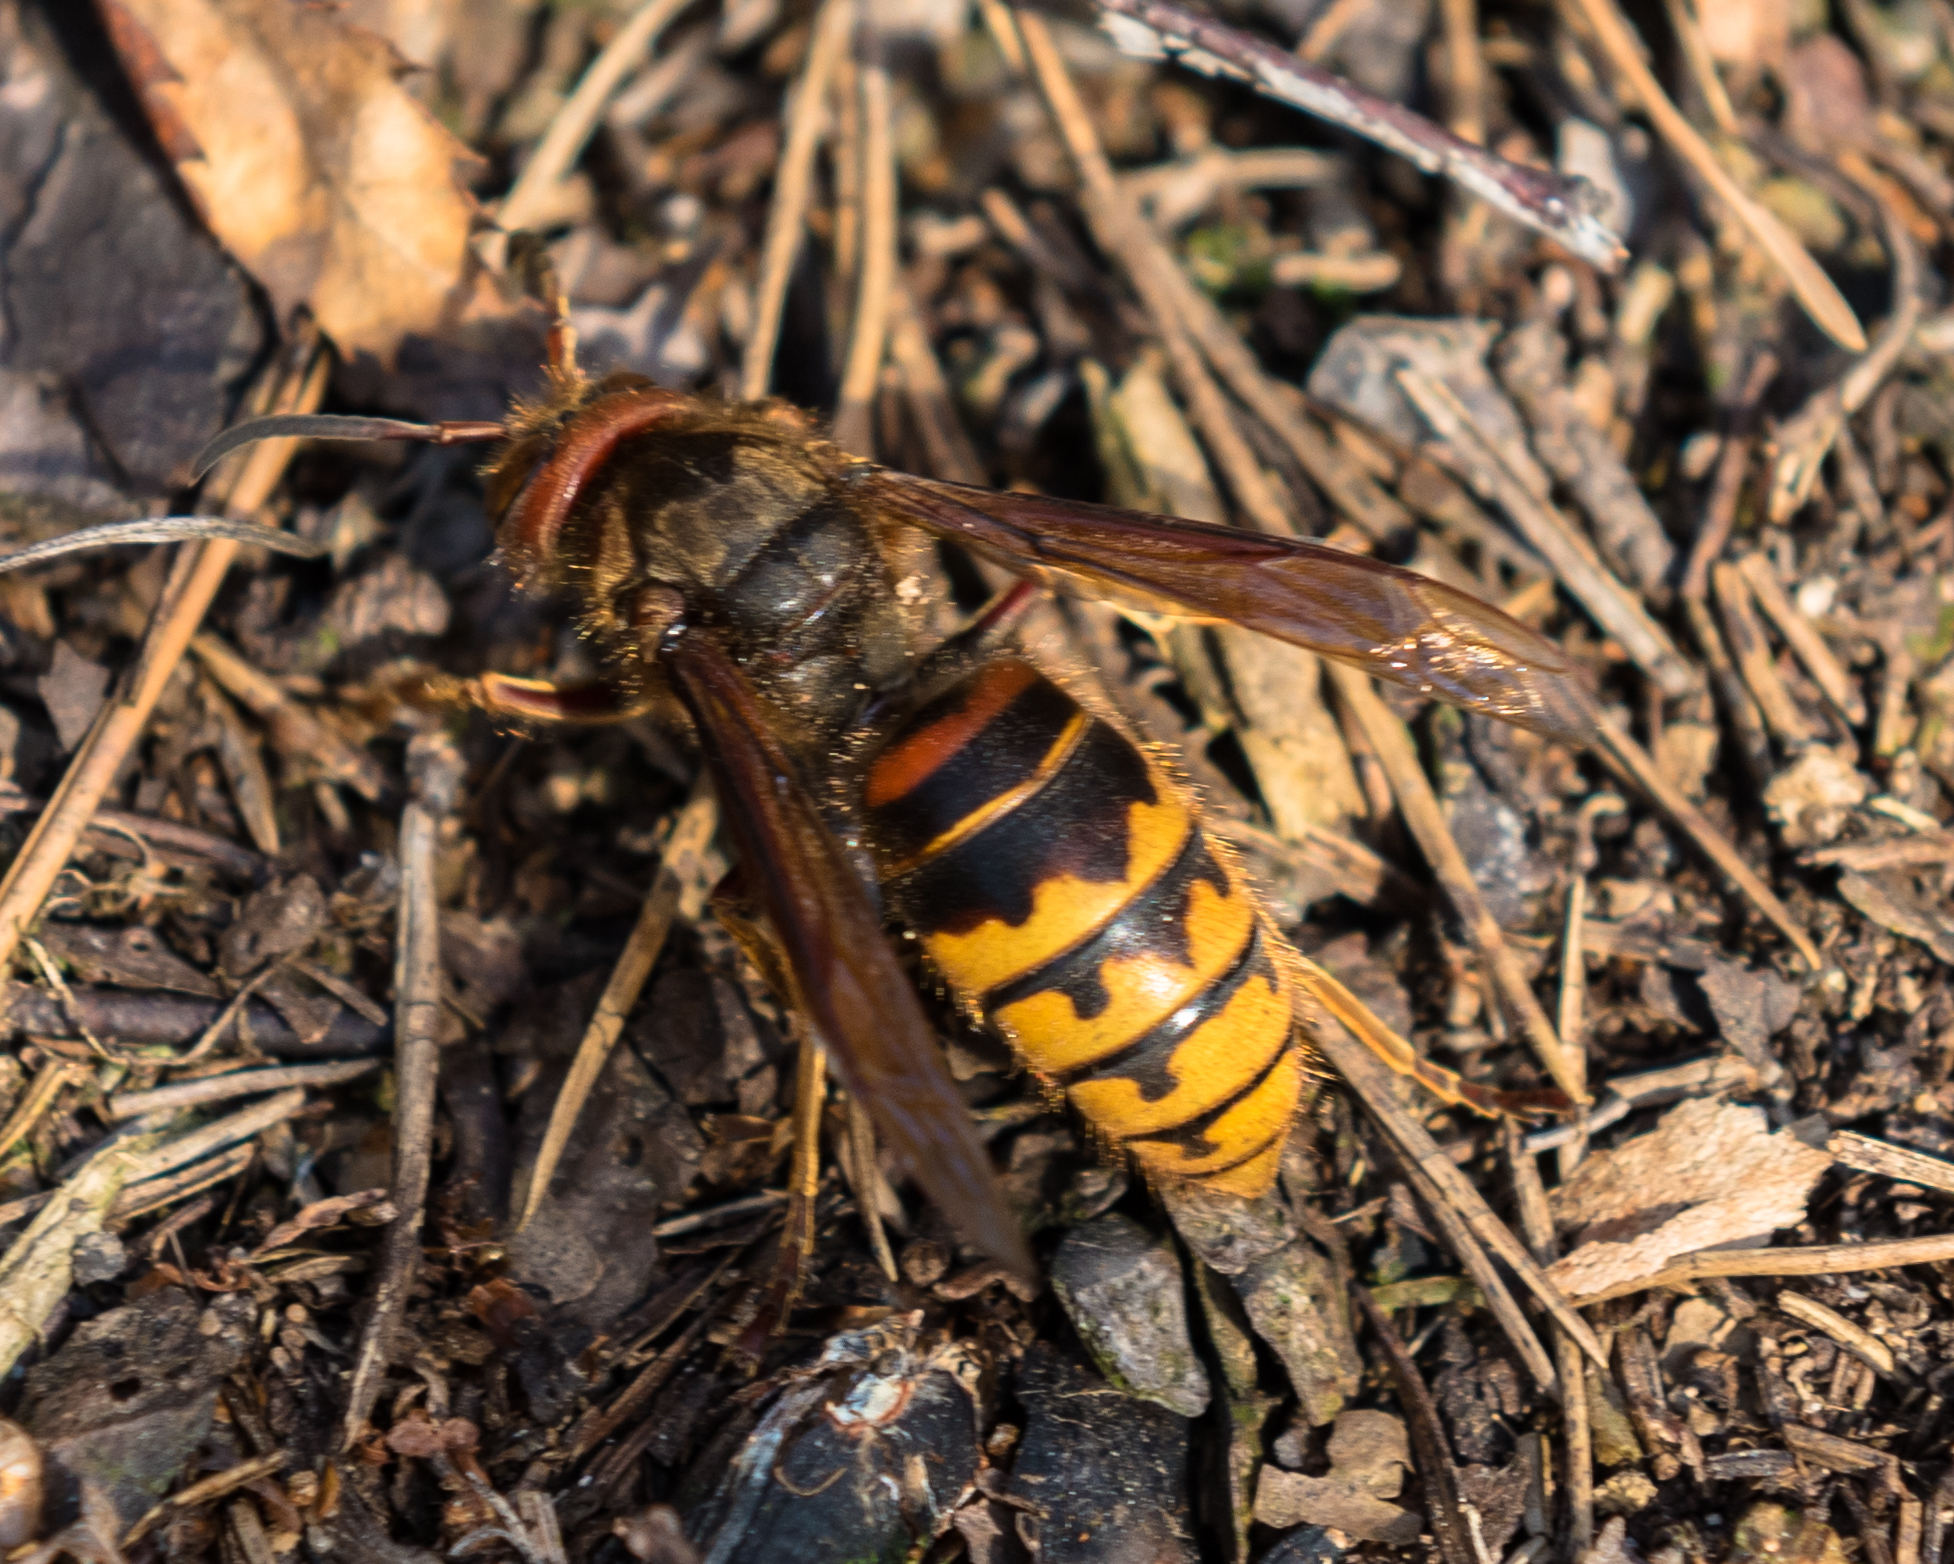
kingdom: Animalia
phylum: Arthropoda
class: Insecta
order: Hymenoptera
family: Vespidae
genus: Vespa
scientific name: Vespa crabro
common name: Hornet
